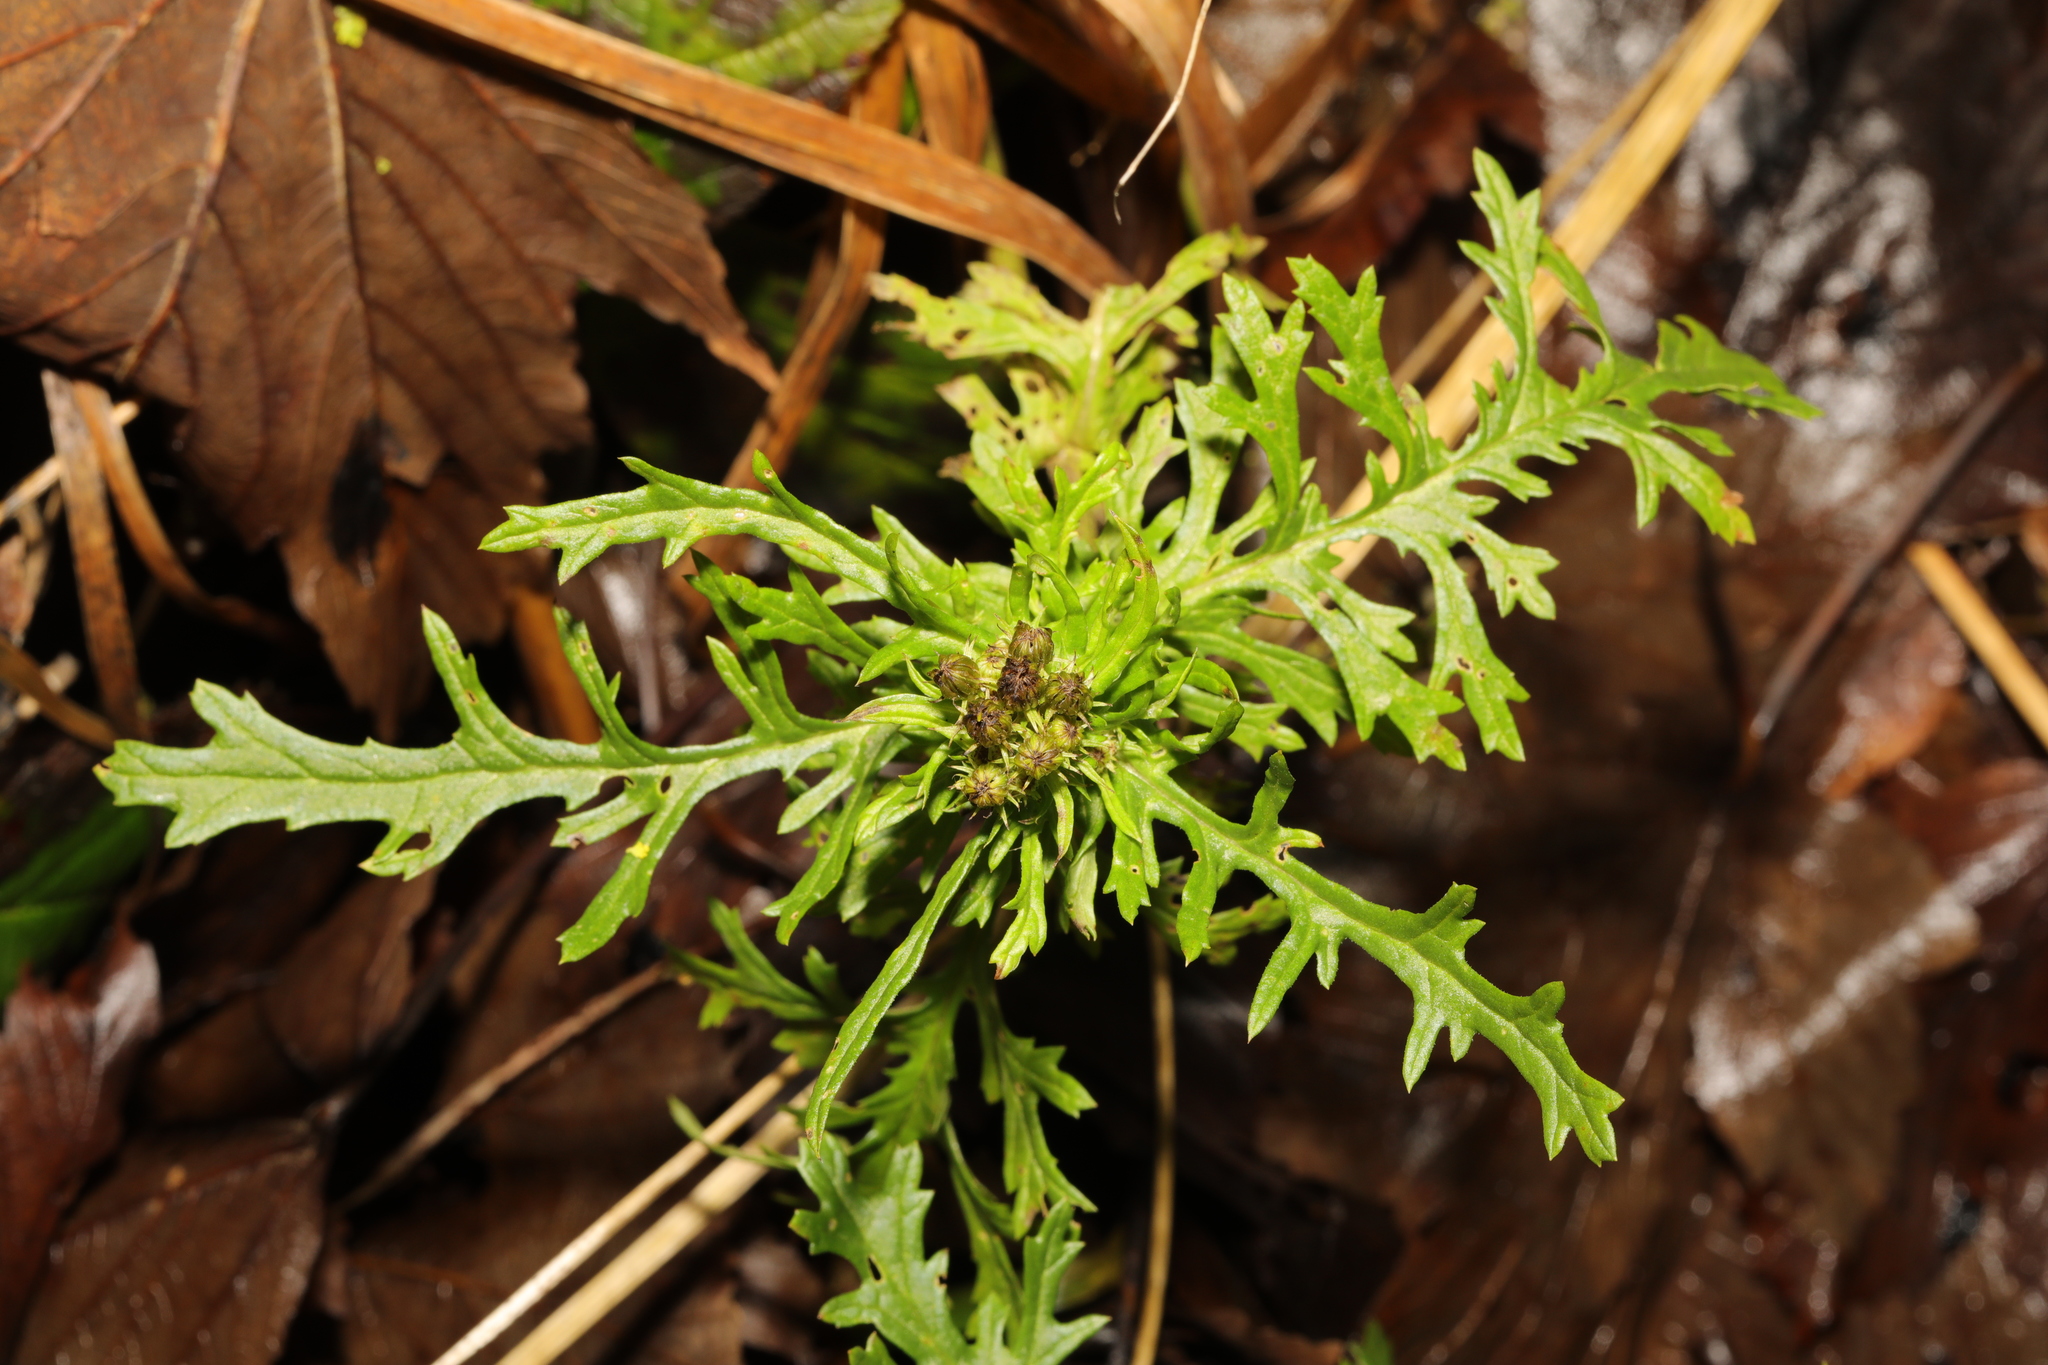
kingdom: Plantae
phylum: Tracheophyta
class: Magnoliopsida
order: Asterales
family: Asteraceae
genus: Jacobaea
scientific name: Jacobaea vulgaris
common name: Stinking willie
